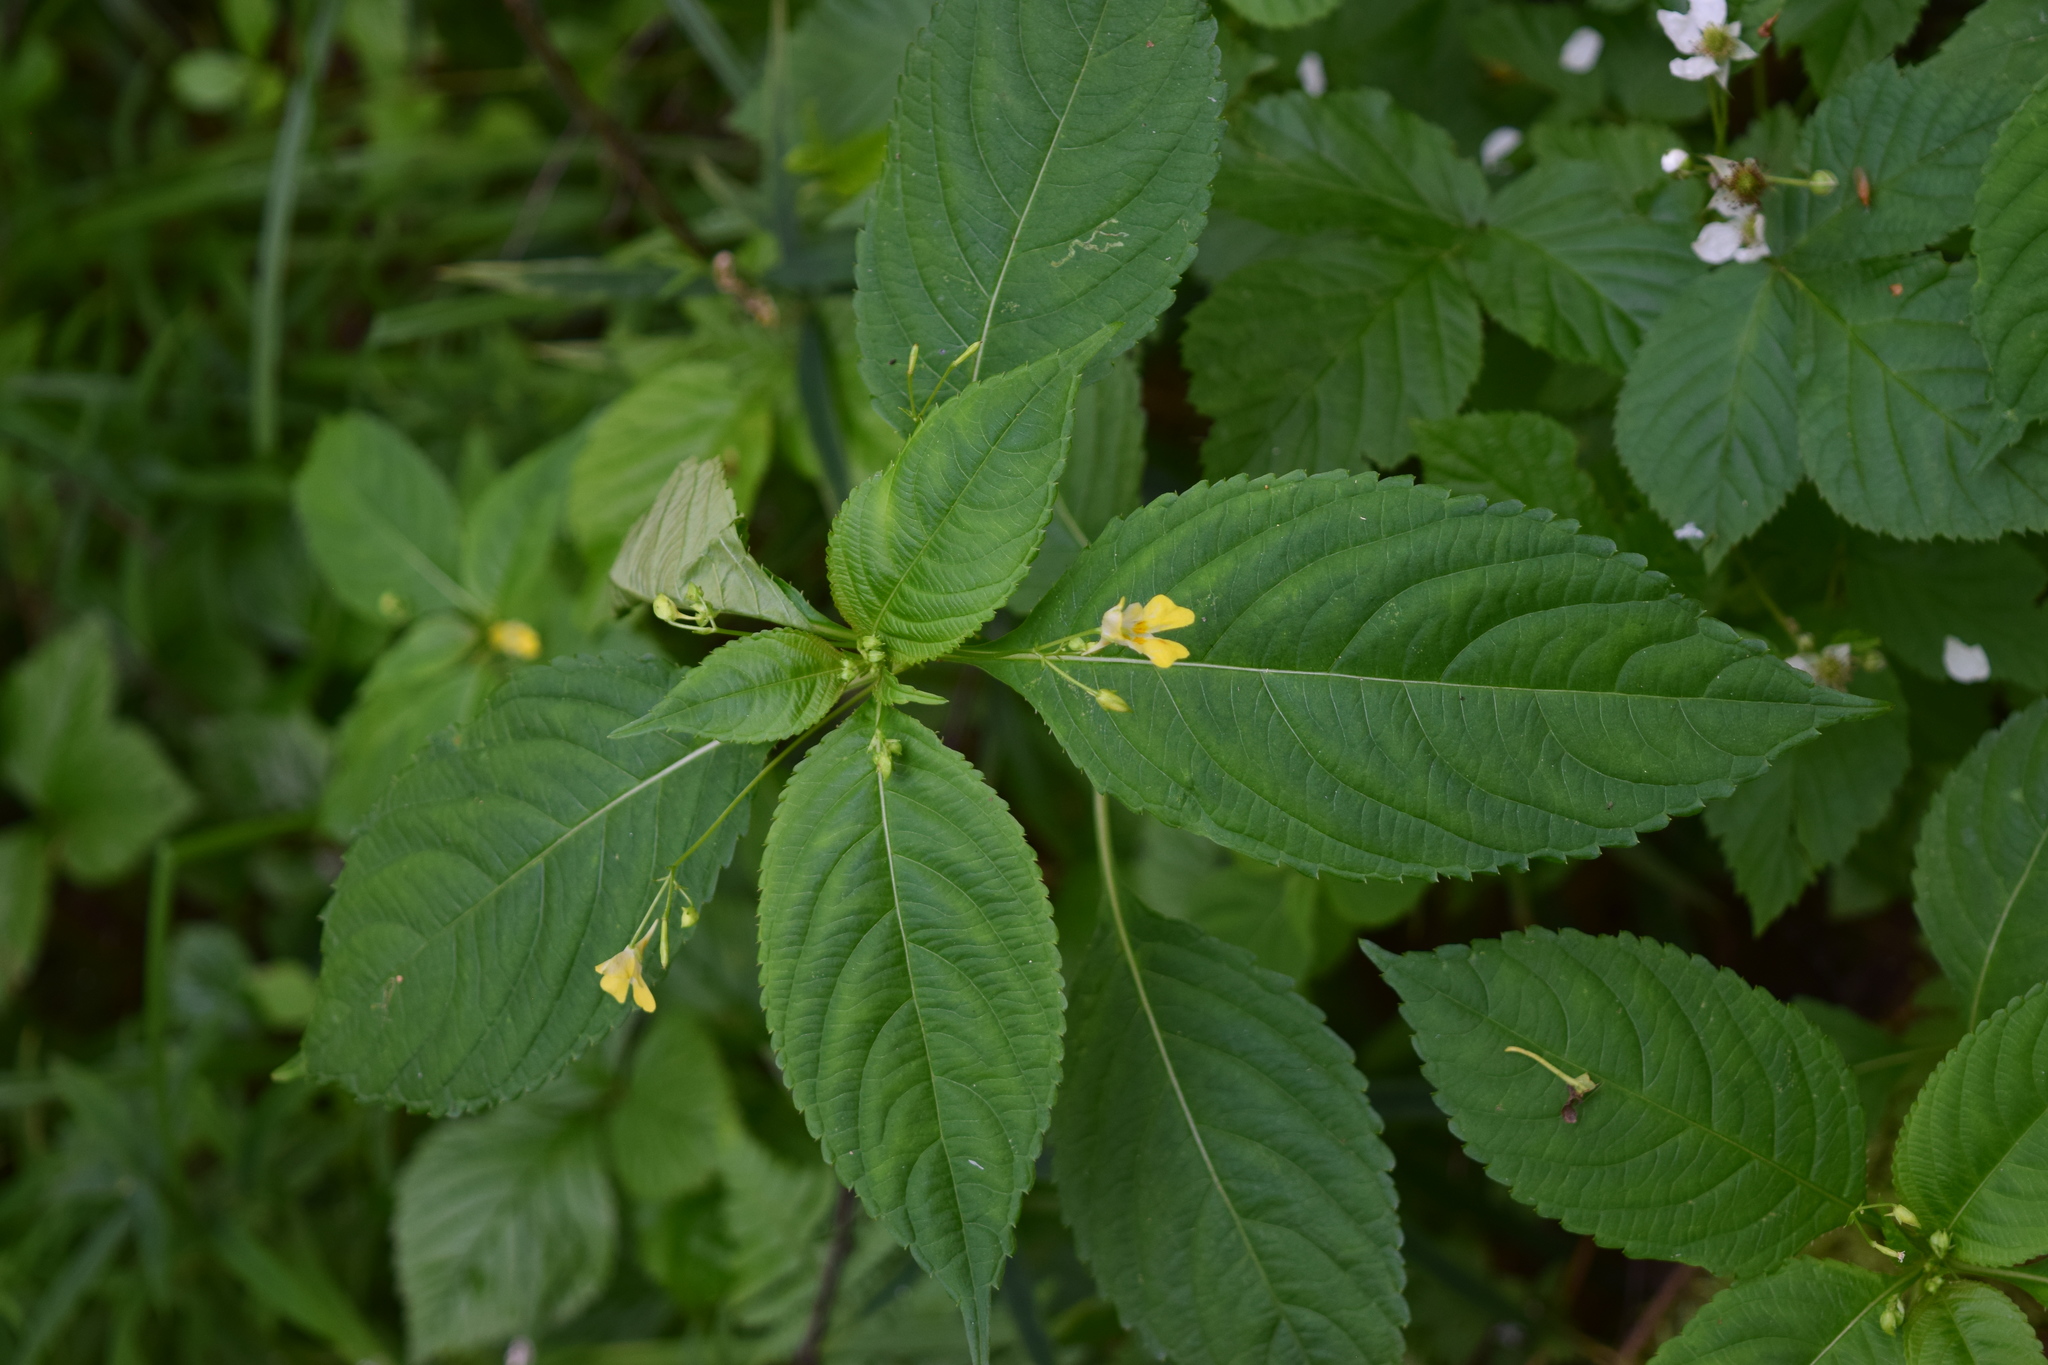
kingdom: Plantae
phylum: Tracheophyta
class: Magnoliopsida
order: Ericales
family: Balsaminaceae
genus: Impatiens
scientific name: Impatiens parviflora
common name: Small balsam
